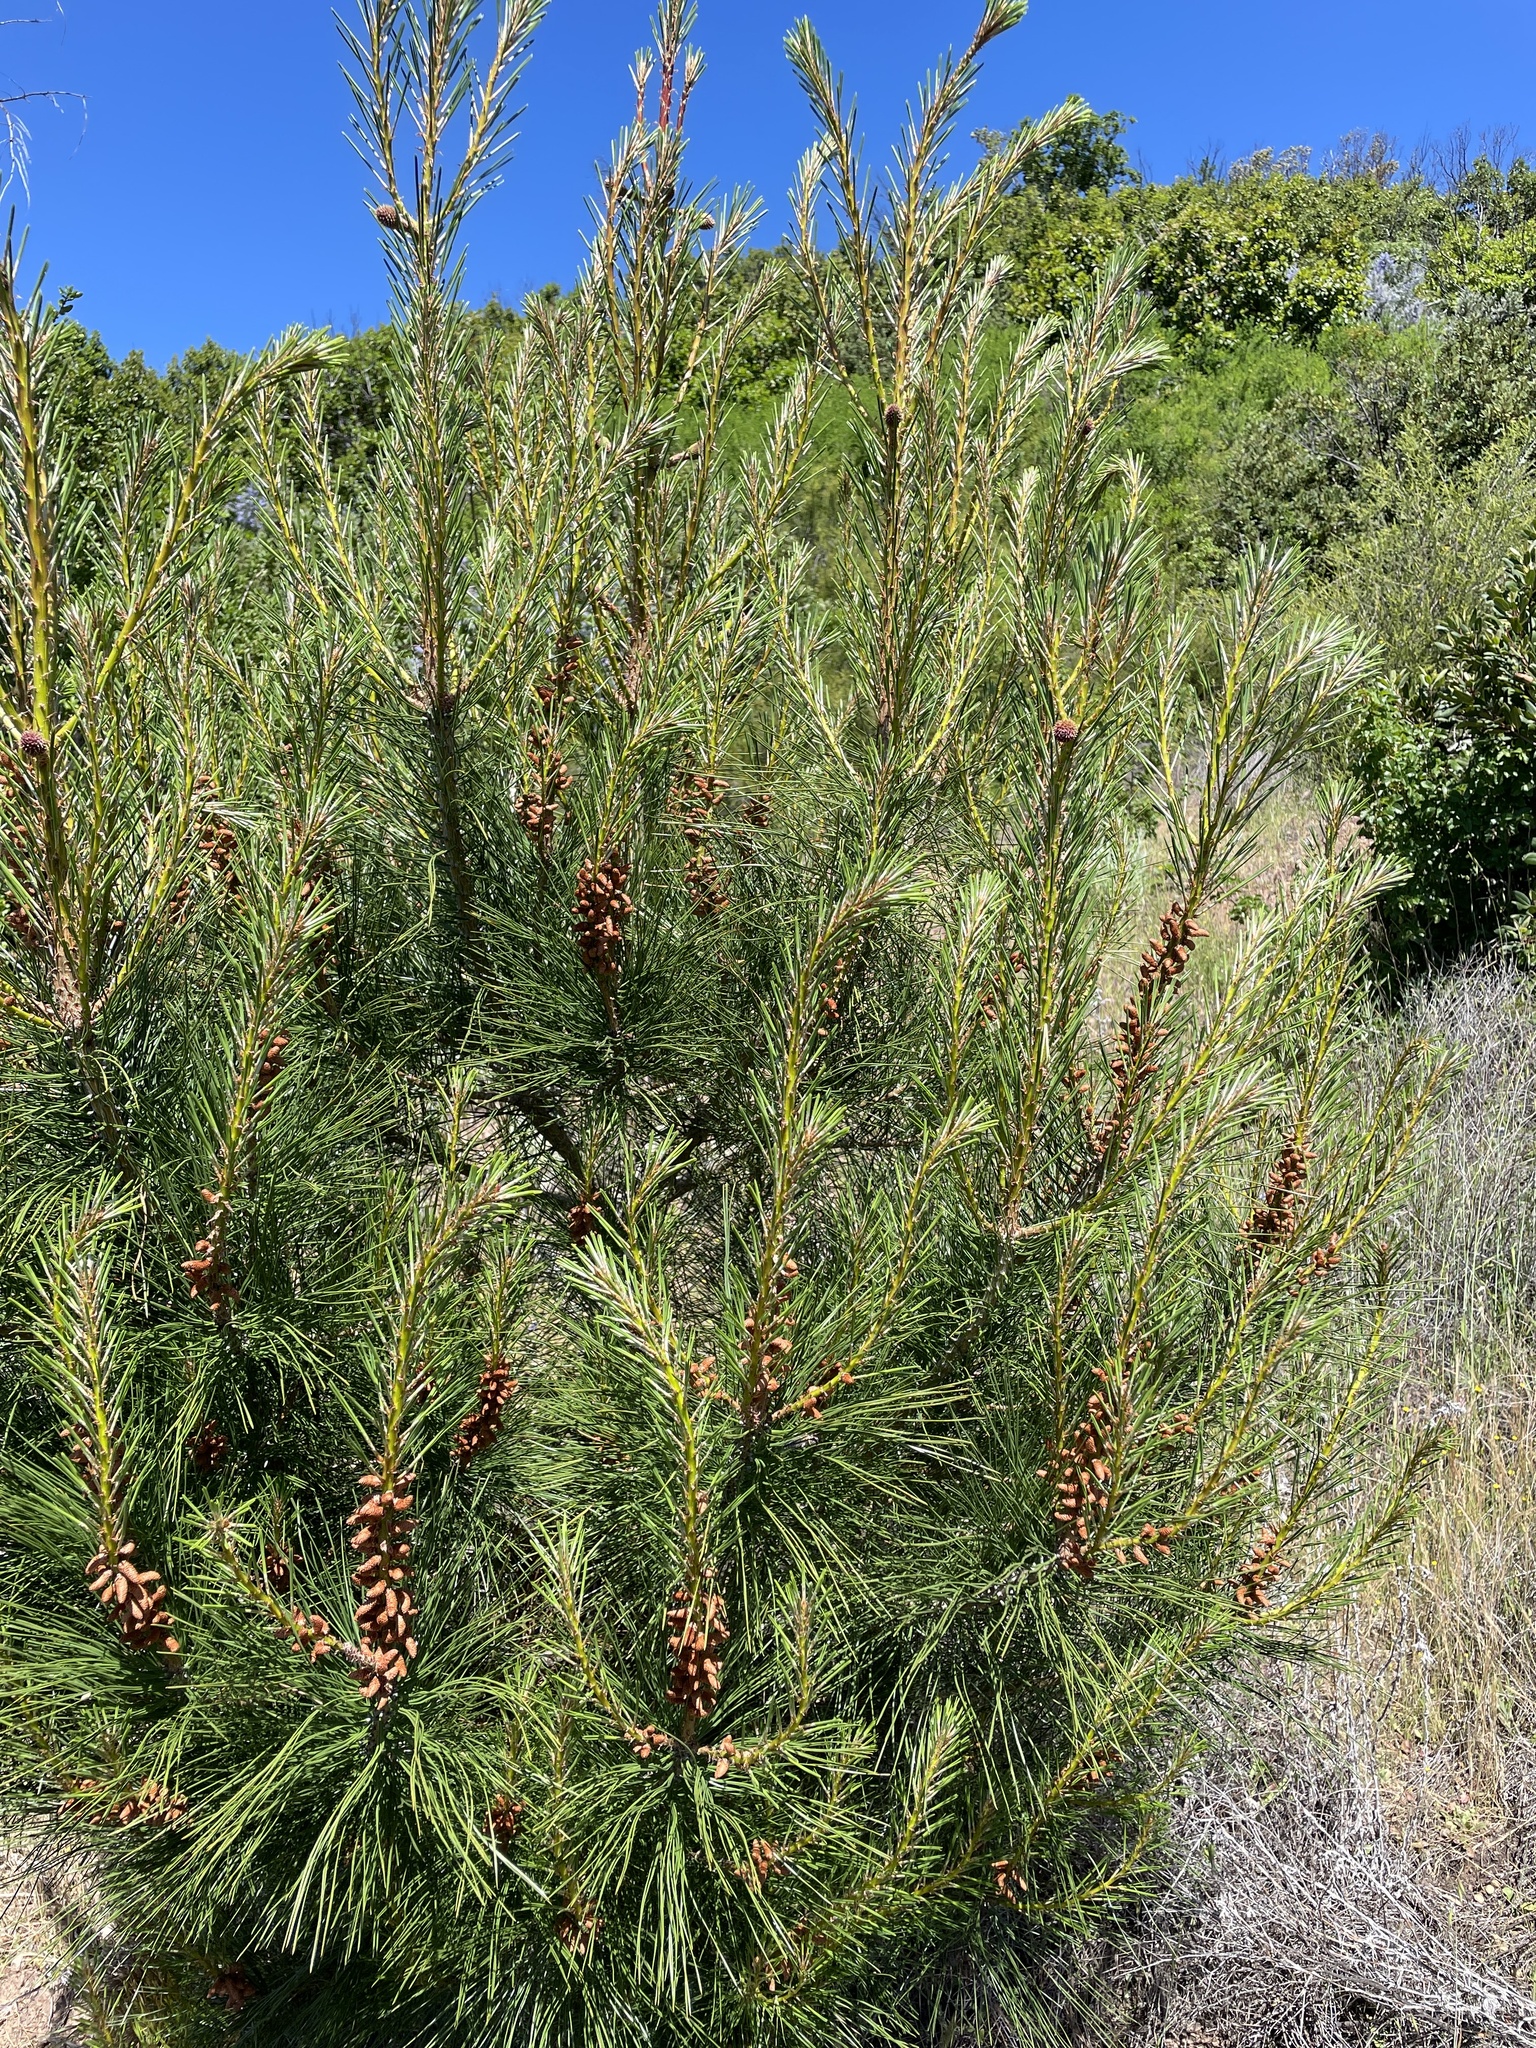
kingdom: Plantae
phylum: Tracheophyta
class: Pinopsida
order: Pinales
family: Pinaceae
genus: Pinus
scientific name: Pinus attenuata
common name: Knobcone pine
